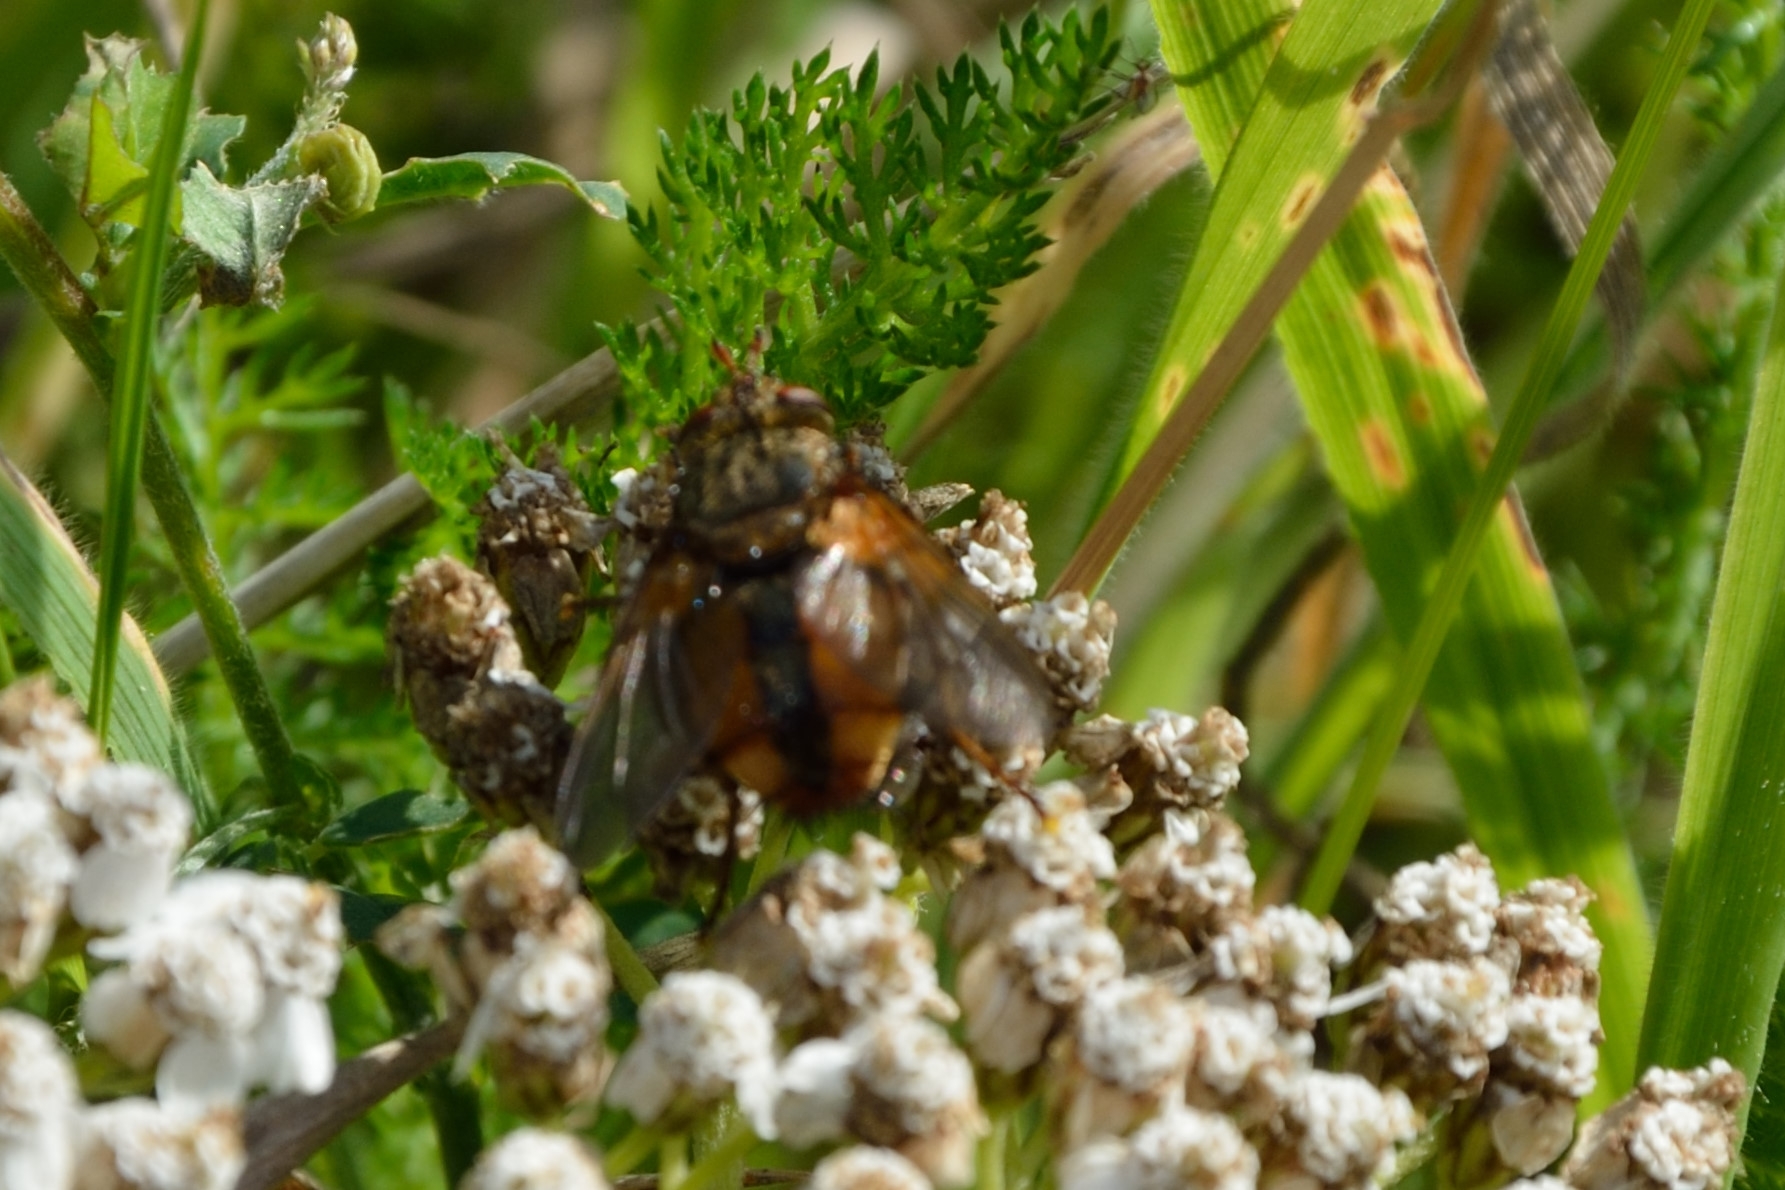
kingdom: Animalia
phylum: Arthropoda
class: Insecta
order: Diptera
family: Tachinidae
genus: Tachina
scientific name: Tachina fera
